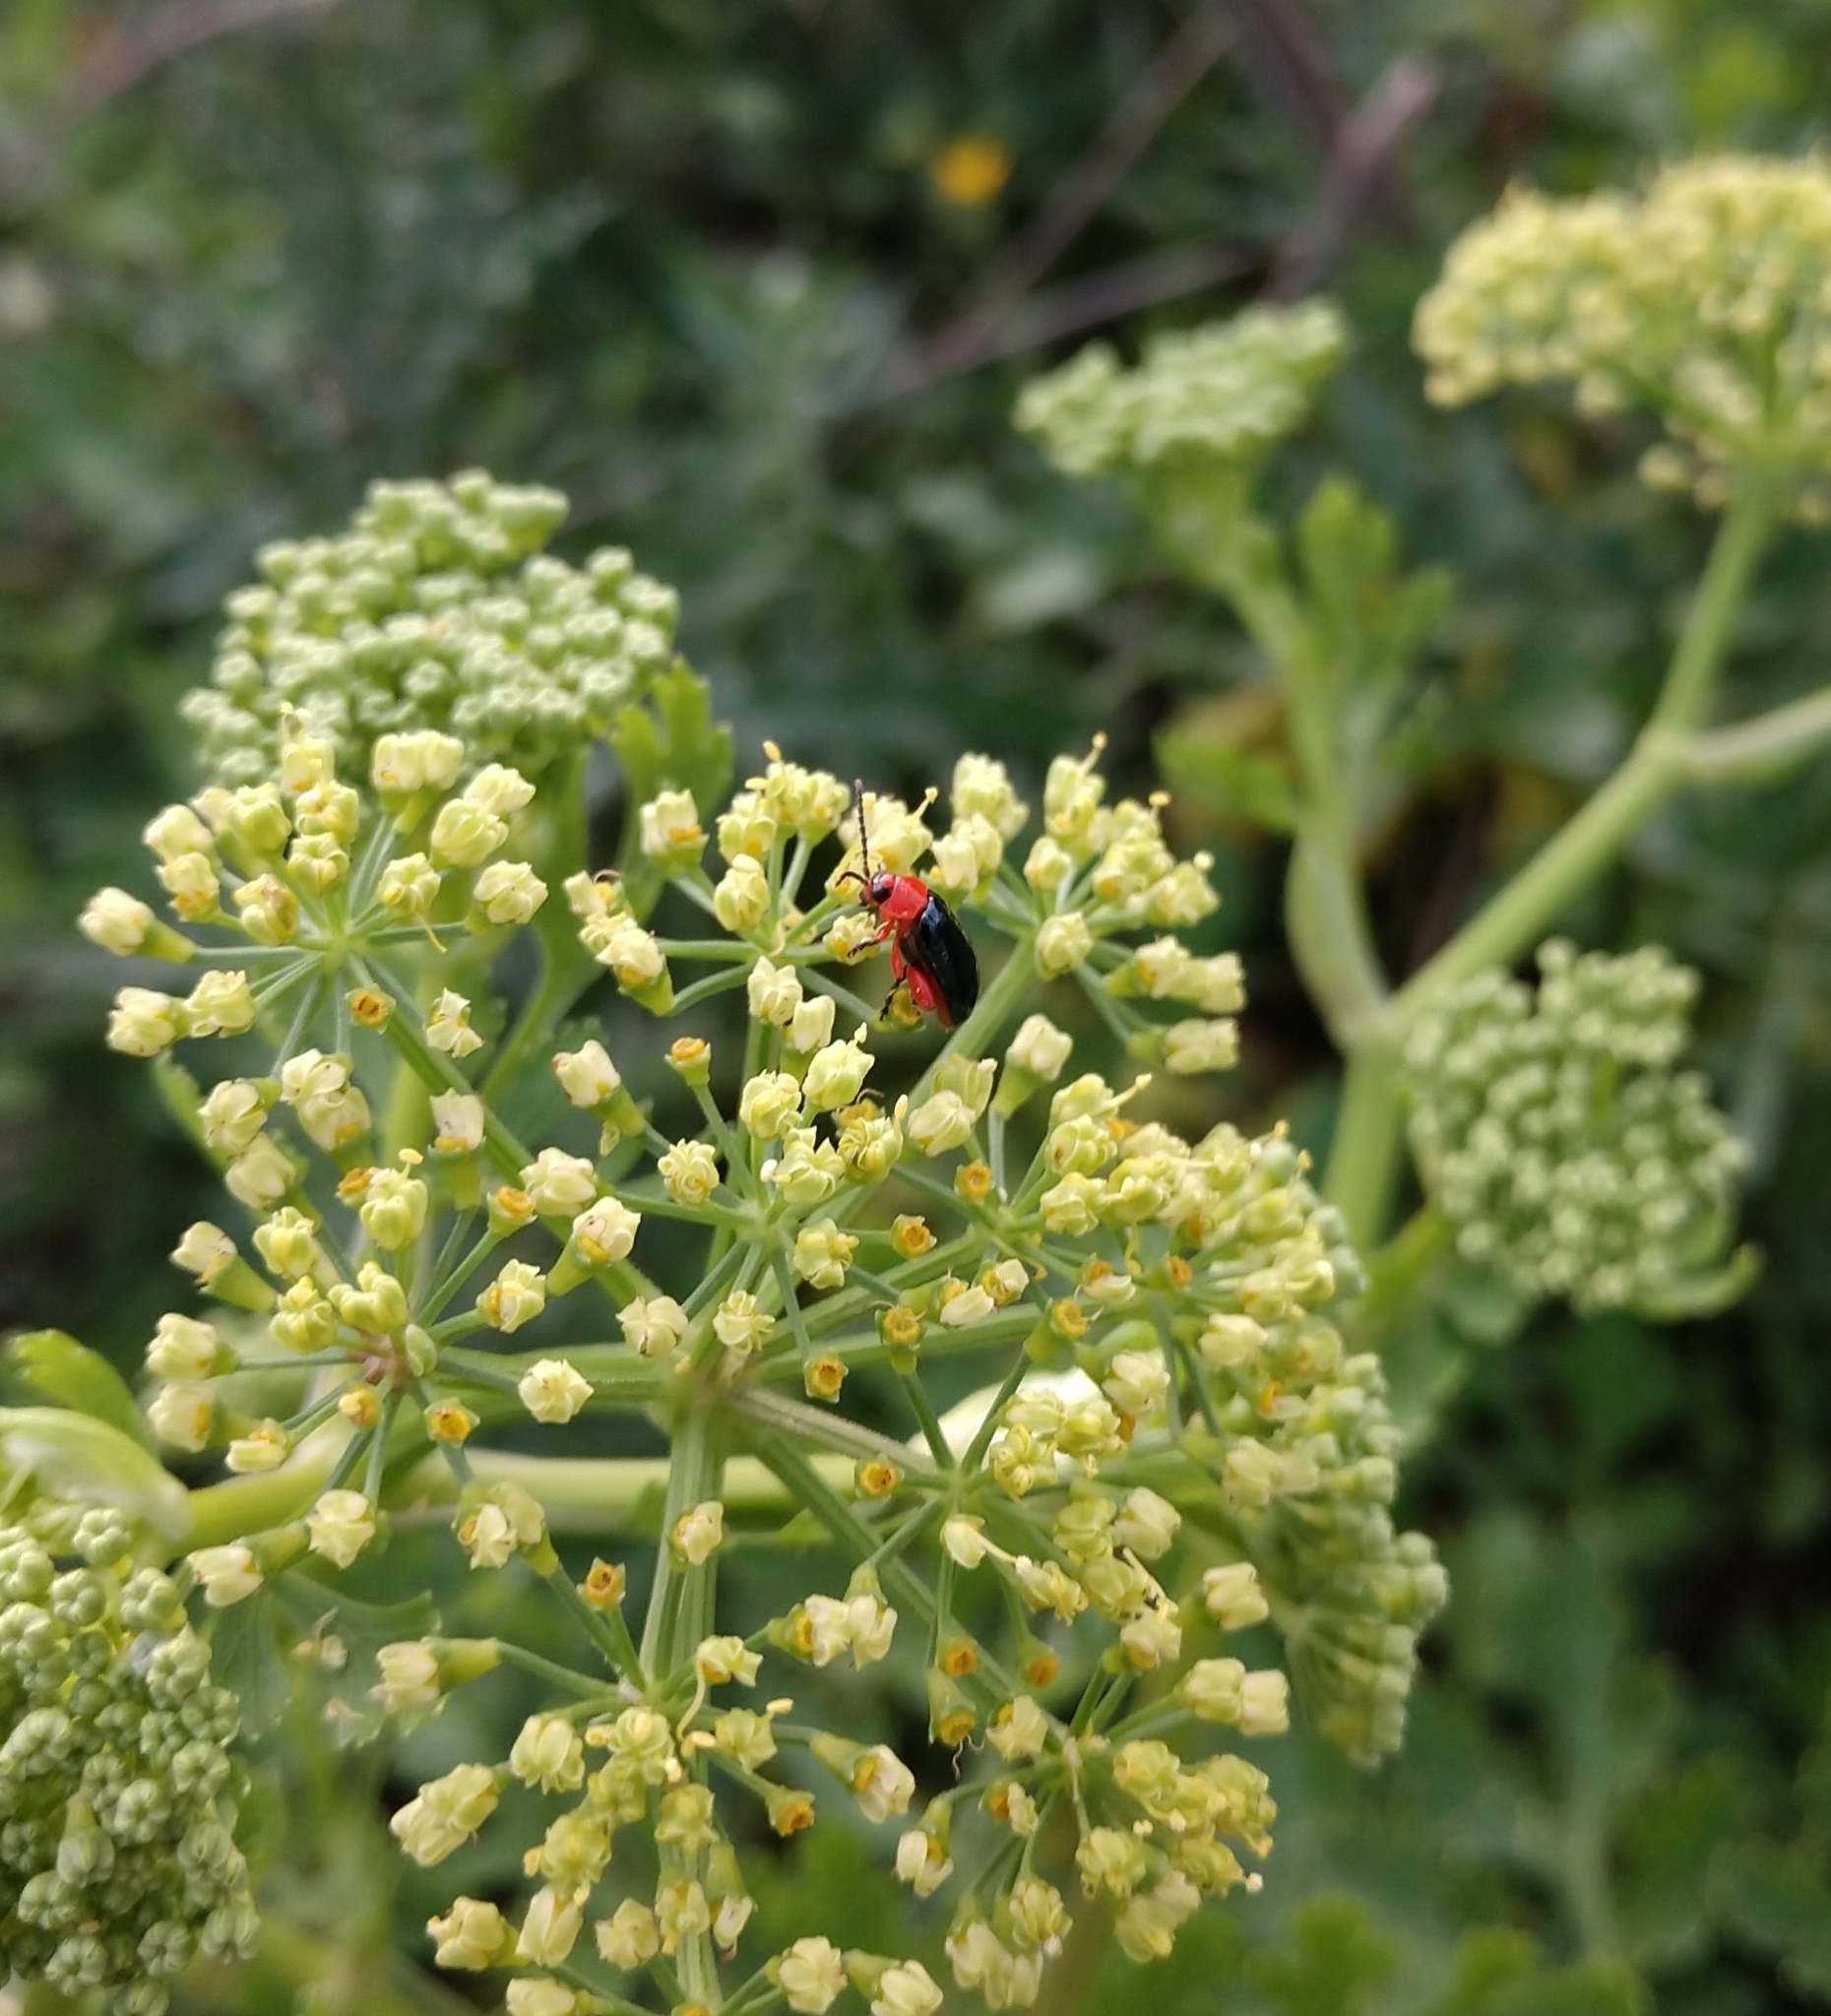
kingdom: Animalia
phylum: Arthropoda
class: Insecta
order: Coleoptera
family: Chrysomelidae
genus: Asphaera
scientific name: Asphaera lustrans
